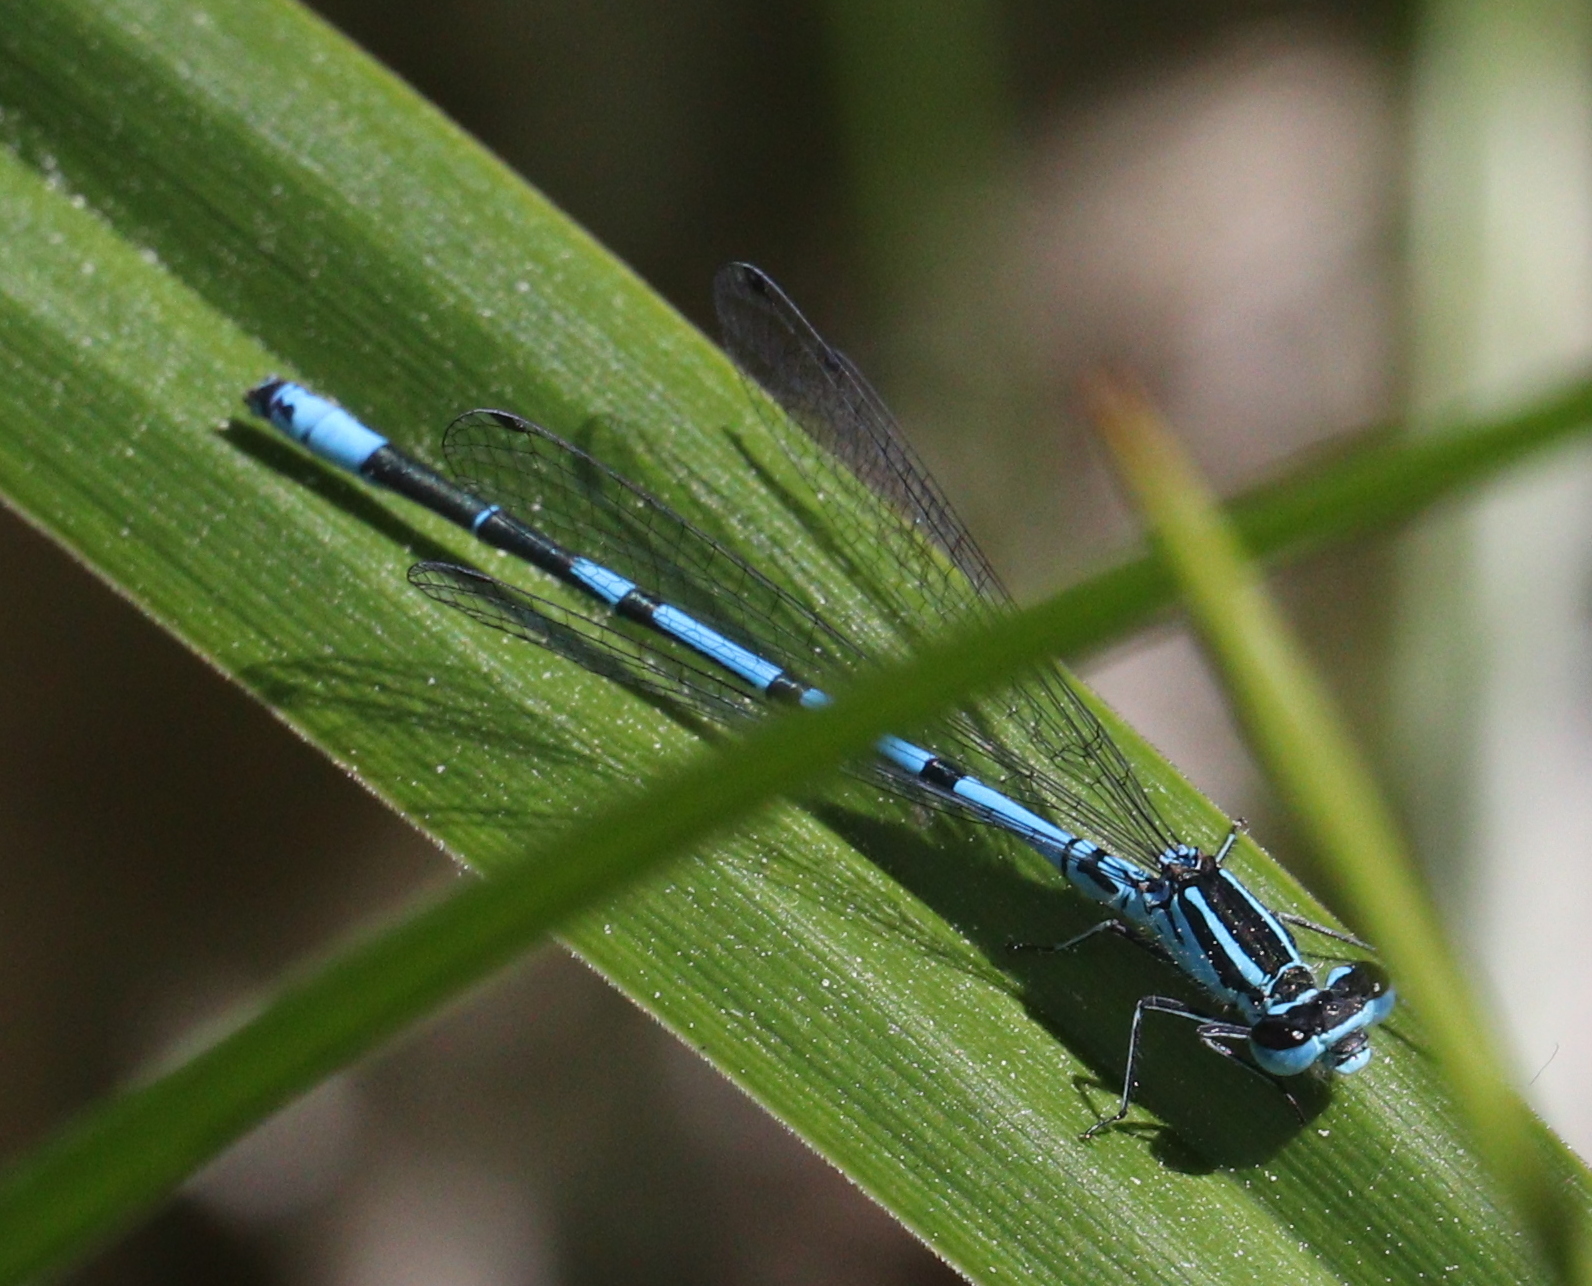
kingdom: Animalia
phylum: Arthropoda
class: Insecta
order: Odonata
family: Coenagrionidae
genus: Coenagrion
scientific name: Coenagrion puella
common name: Azure damselfly
